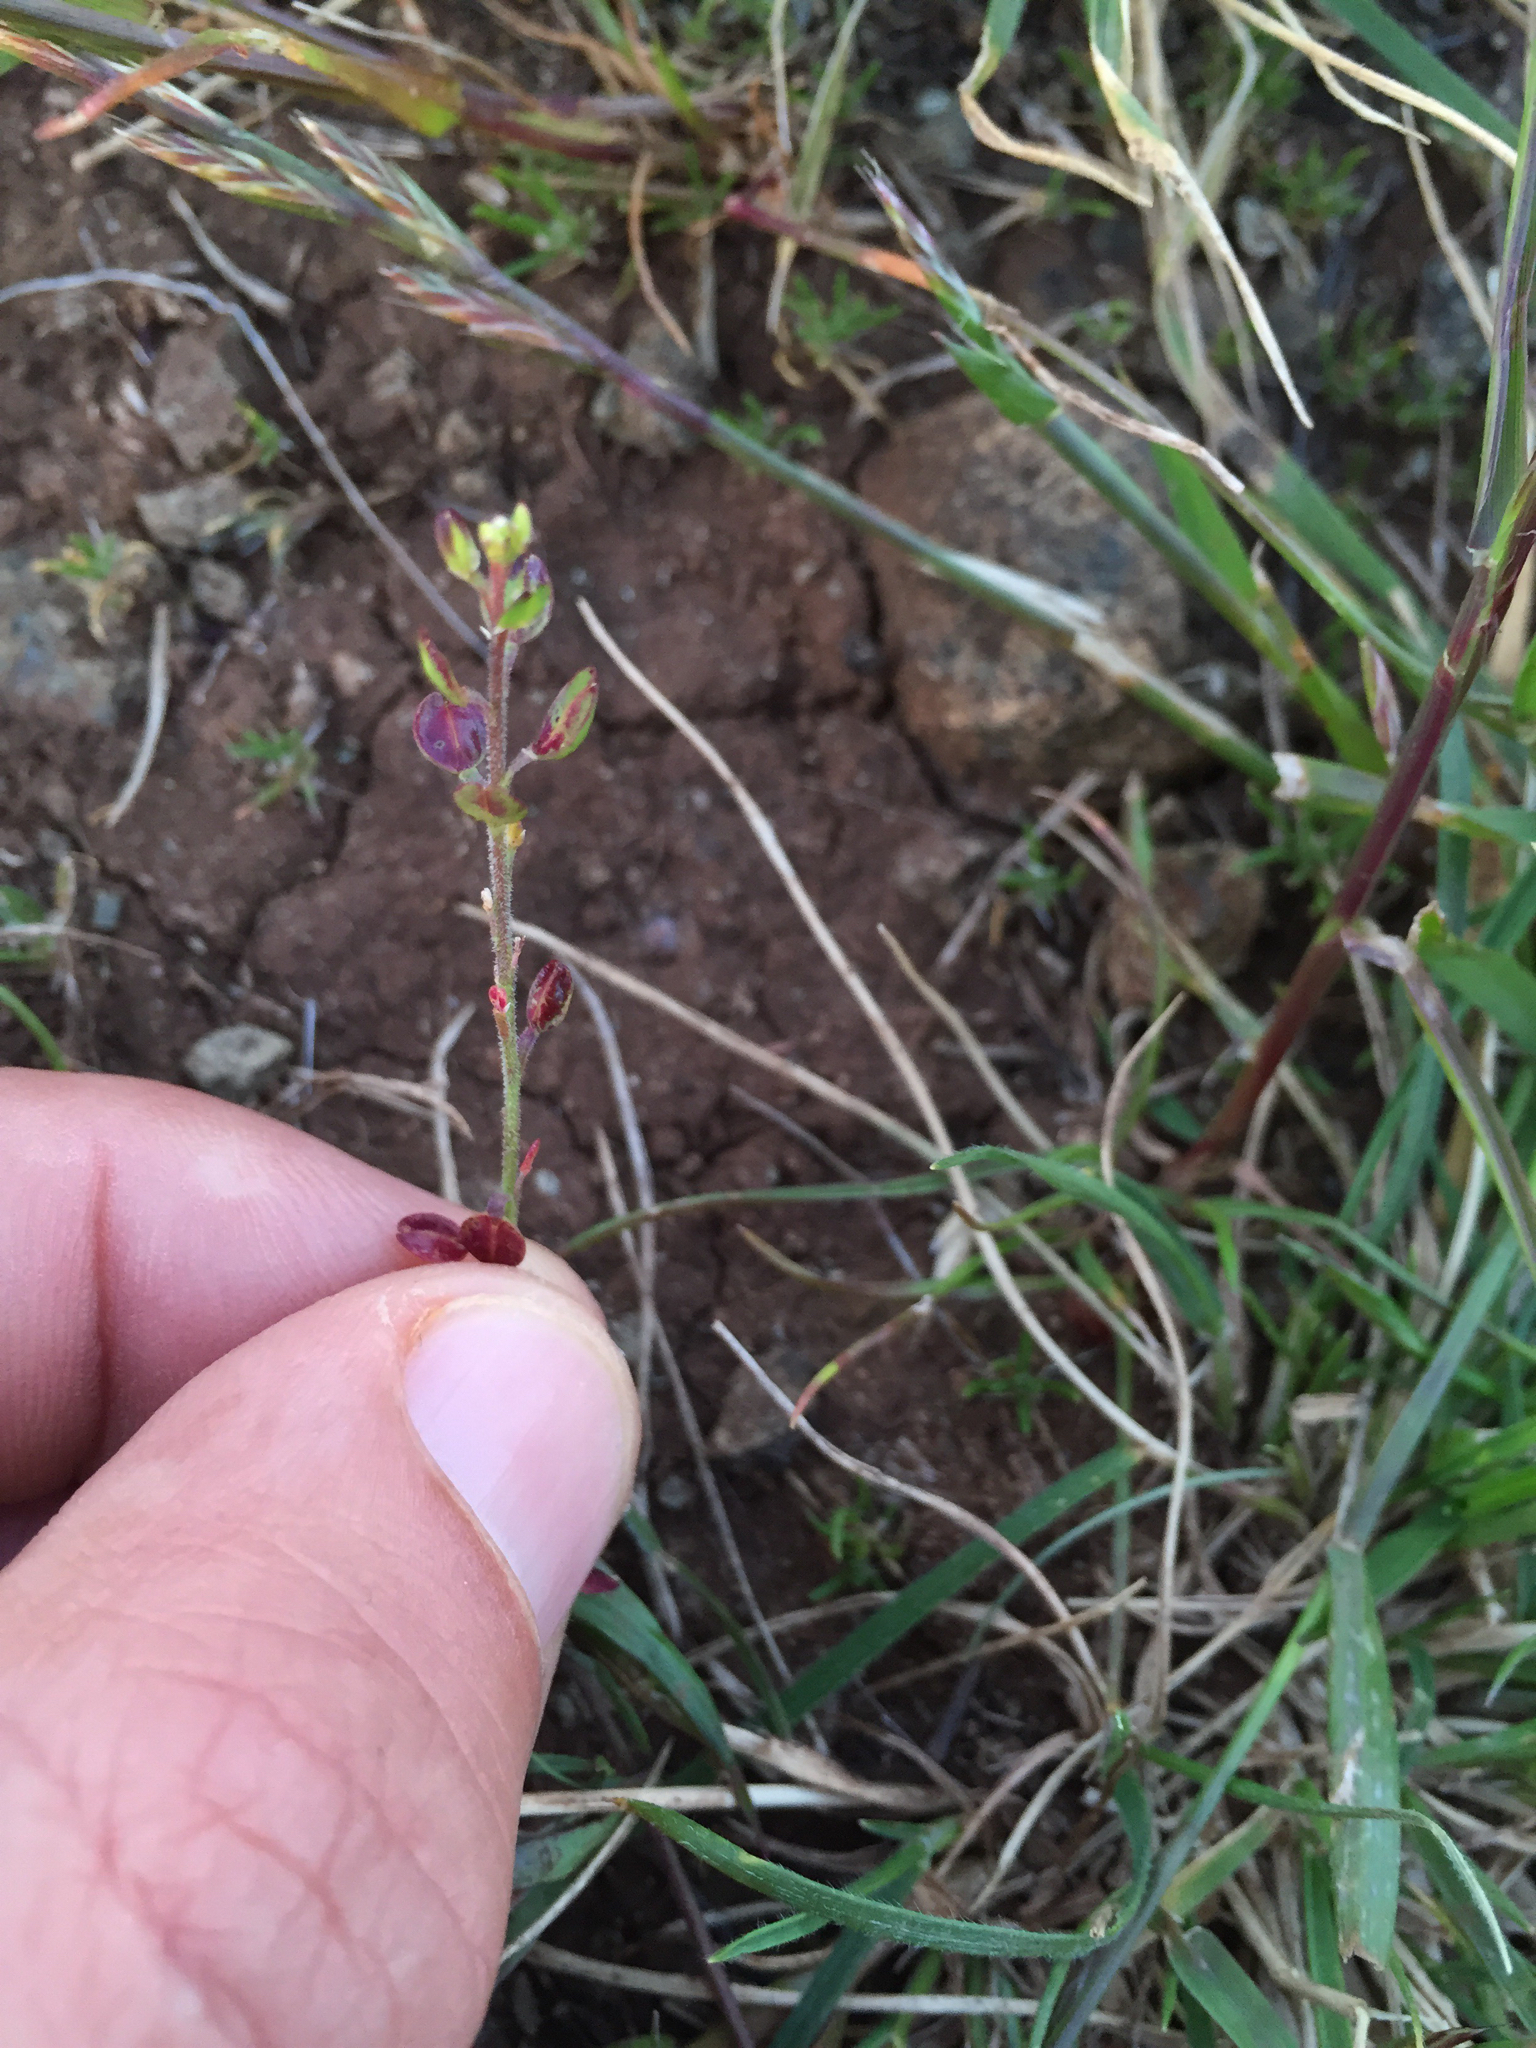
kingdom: Plantae
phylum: Tracheophyta
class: Magnoliopsida
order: Brassicales
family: Brassicaceae
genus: Lepidium
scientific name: Lepidium nitidum
